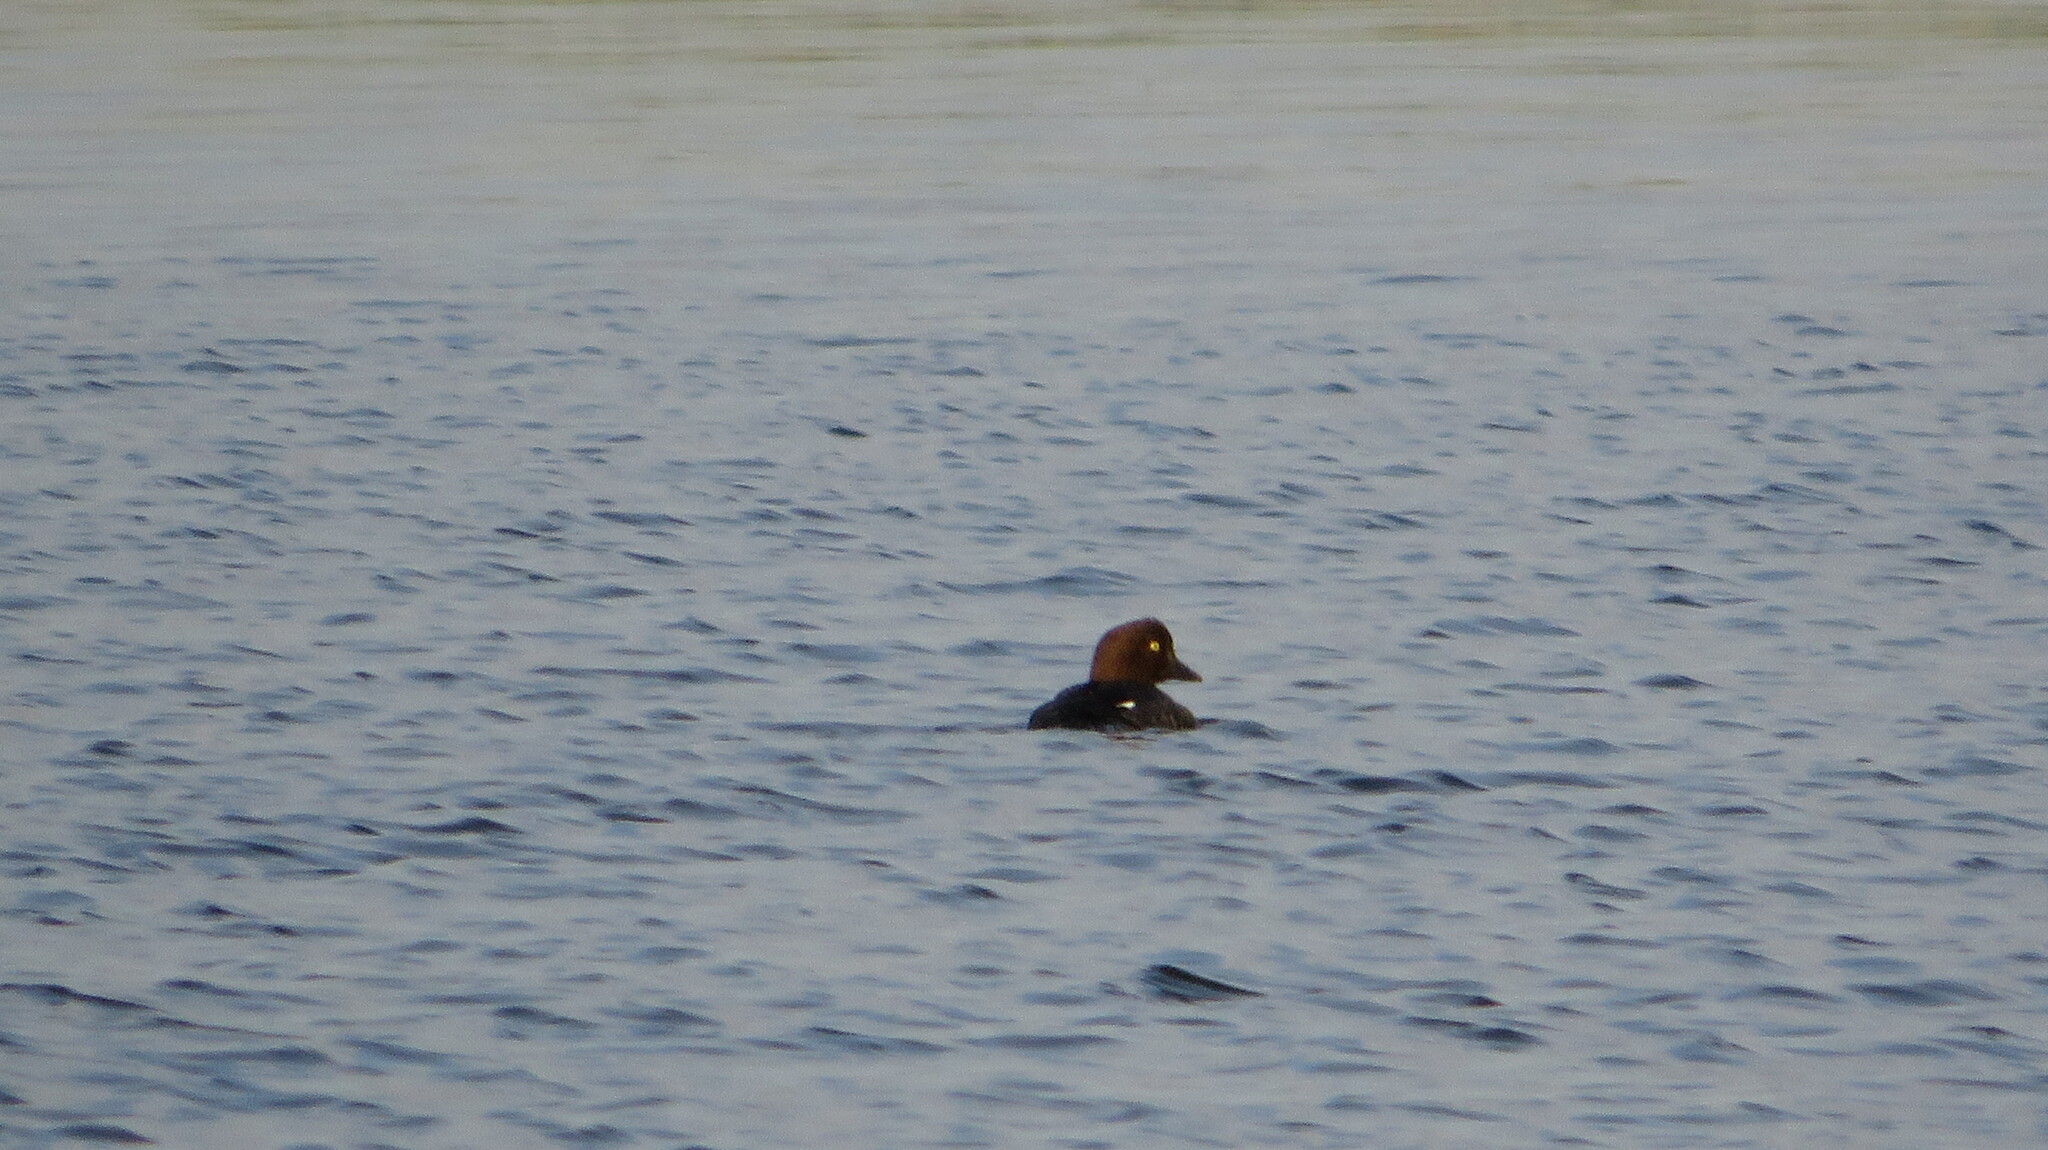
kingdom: Animalia
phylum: Chordata
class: Aves
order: Anseriformes
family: Anatidae
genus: Bucephala
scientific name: Bucephala clangula
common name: Common goldeneye
